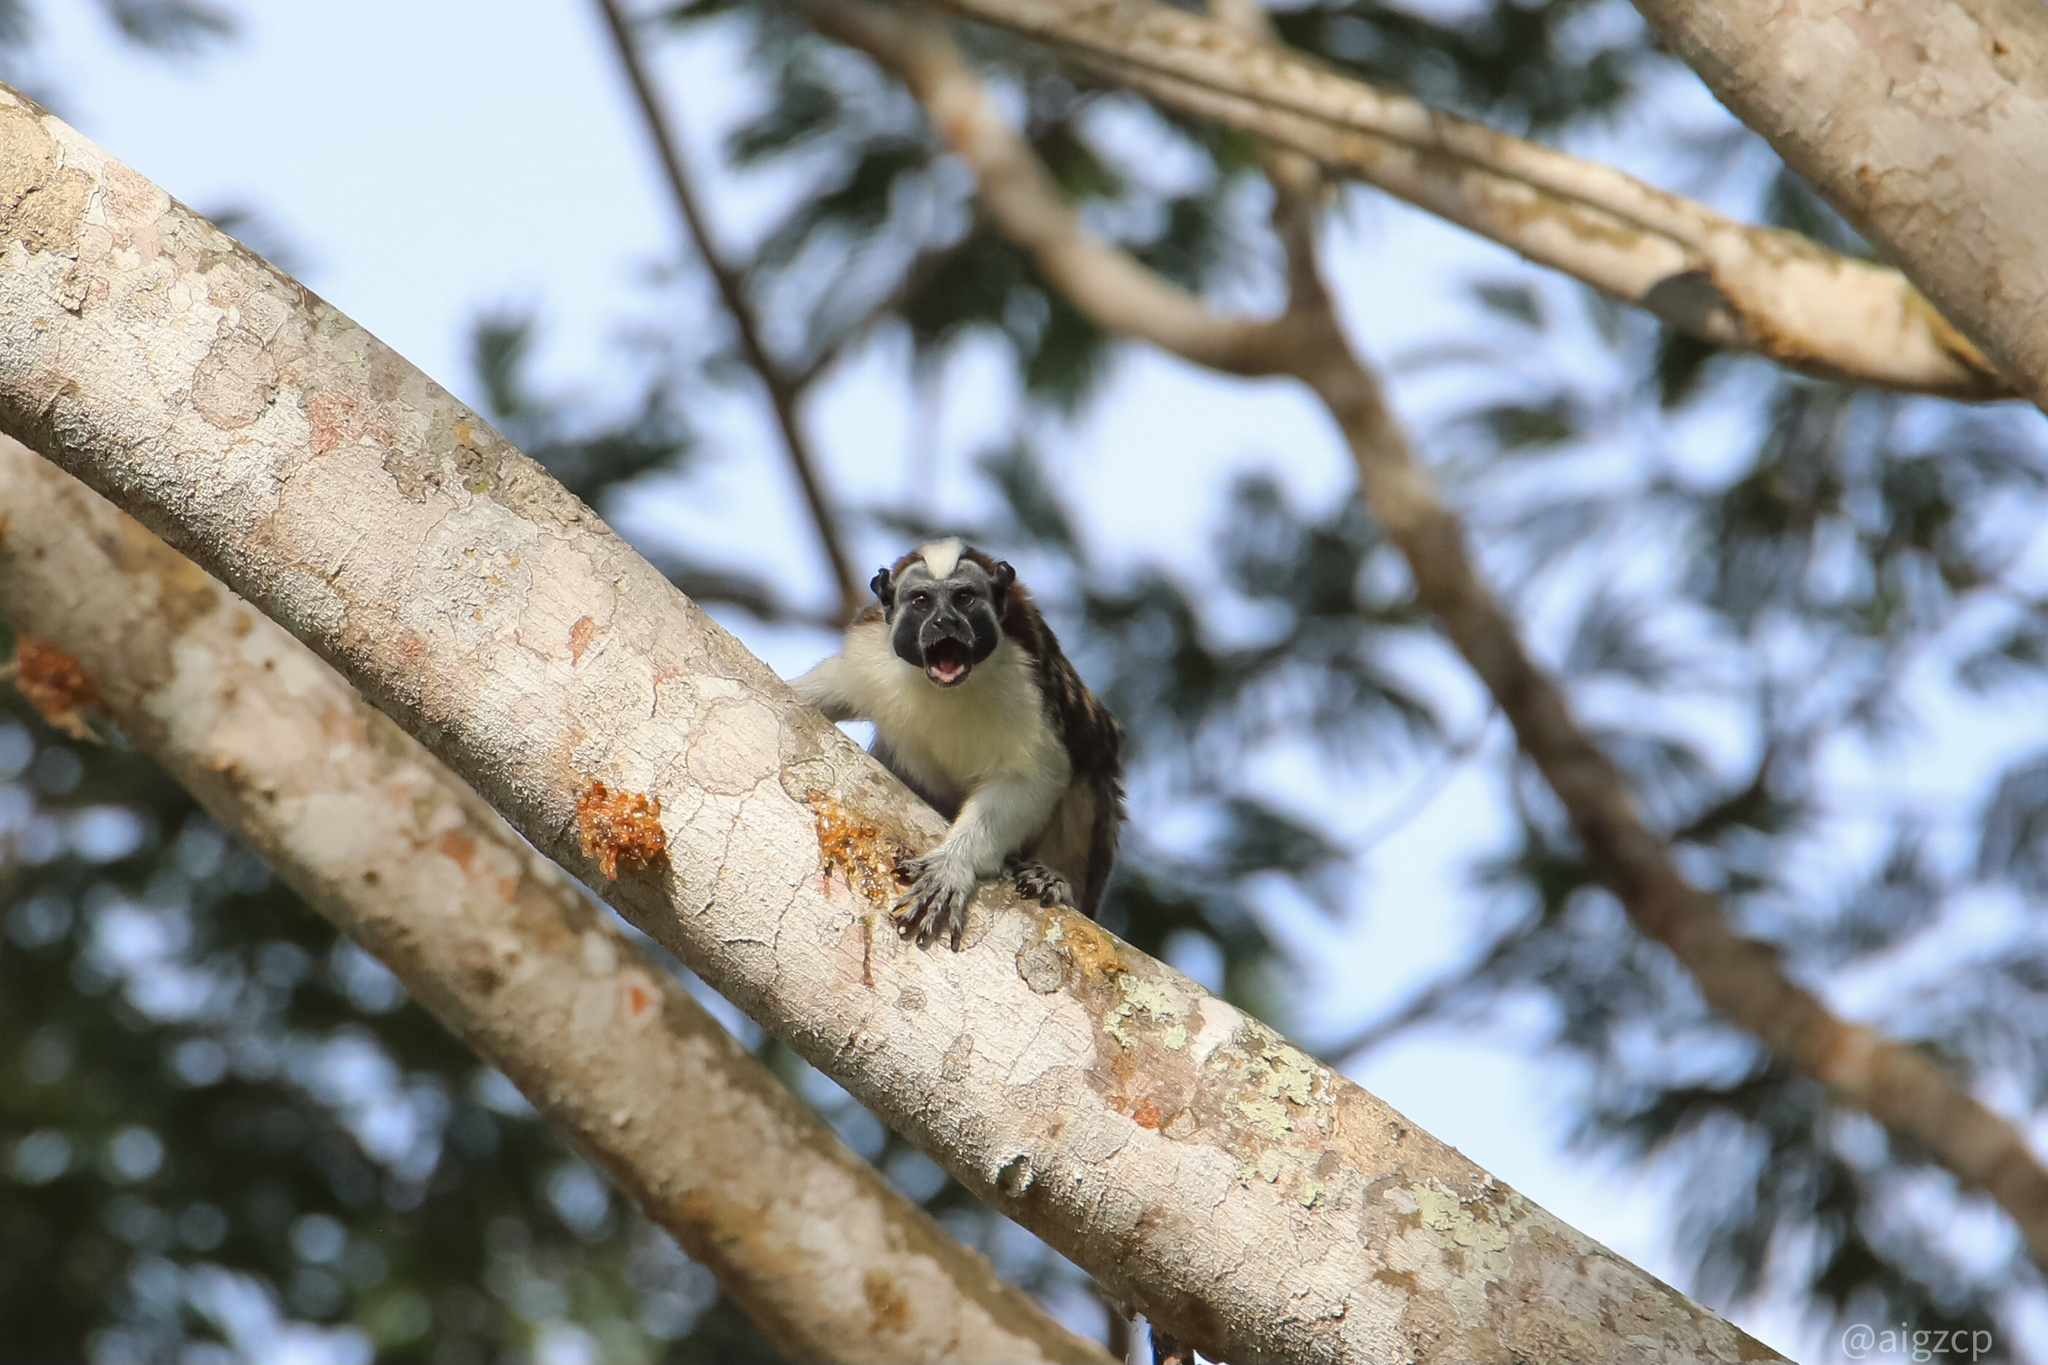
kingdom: Animalia
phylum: Chordata
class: Mammalia
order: Primates
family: Callitrichidae
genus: Saguinus
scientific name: Saguinus geoffroyi
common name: Geoffroy s tamarin
